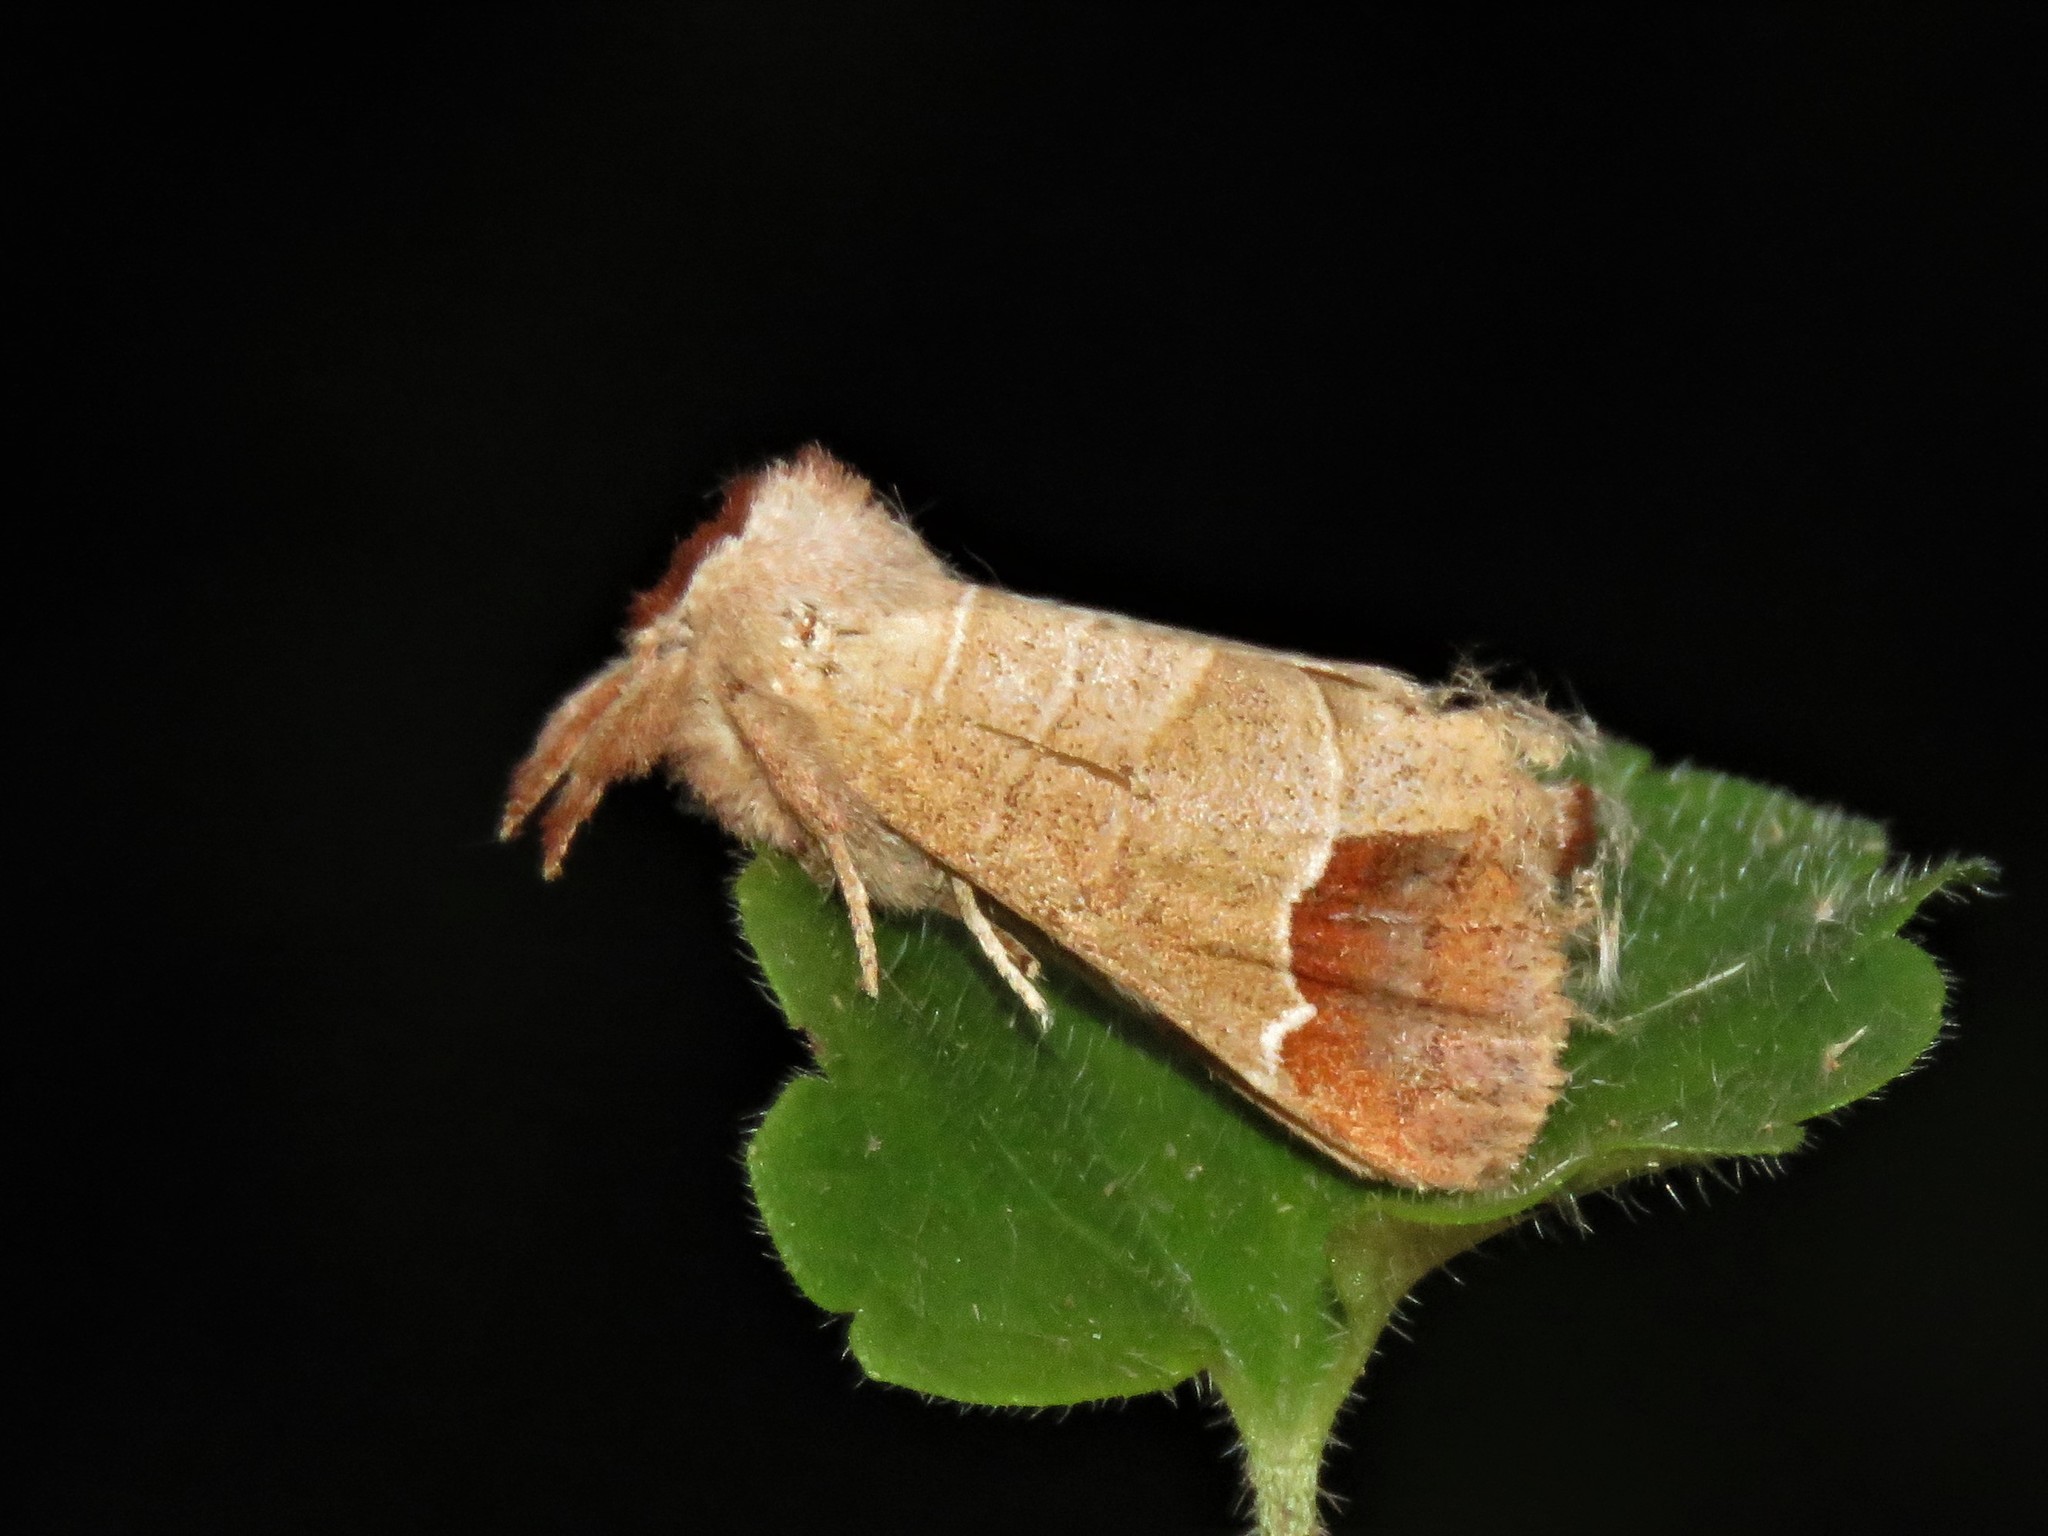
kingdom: Animalia
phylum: Arthropoda
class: Insecta
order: Lepidoptera
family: Notodontidae
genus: Clostera
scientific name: Clostera curtula
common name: Chocolate-tip
